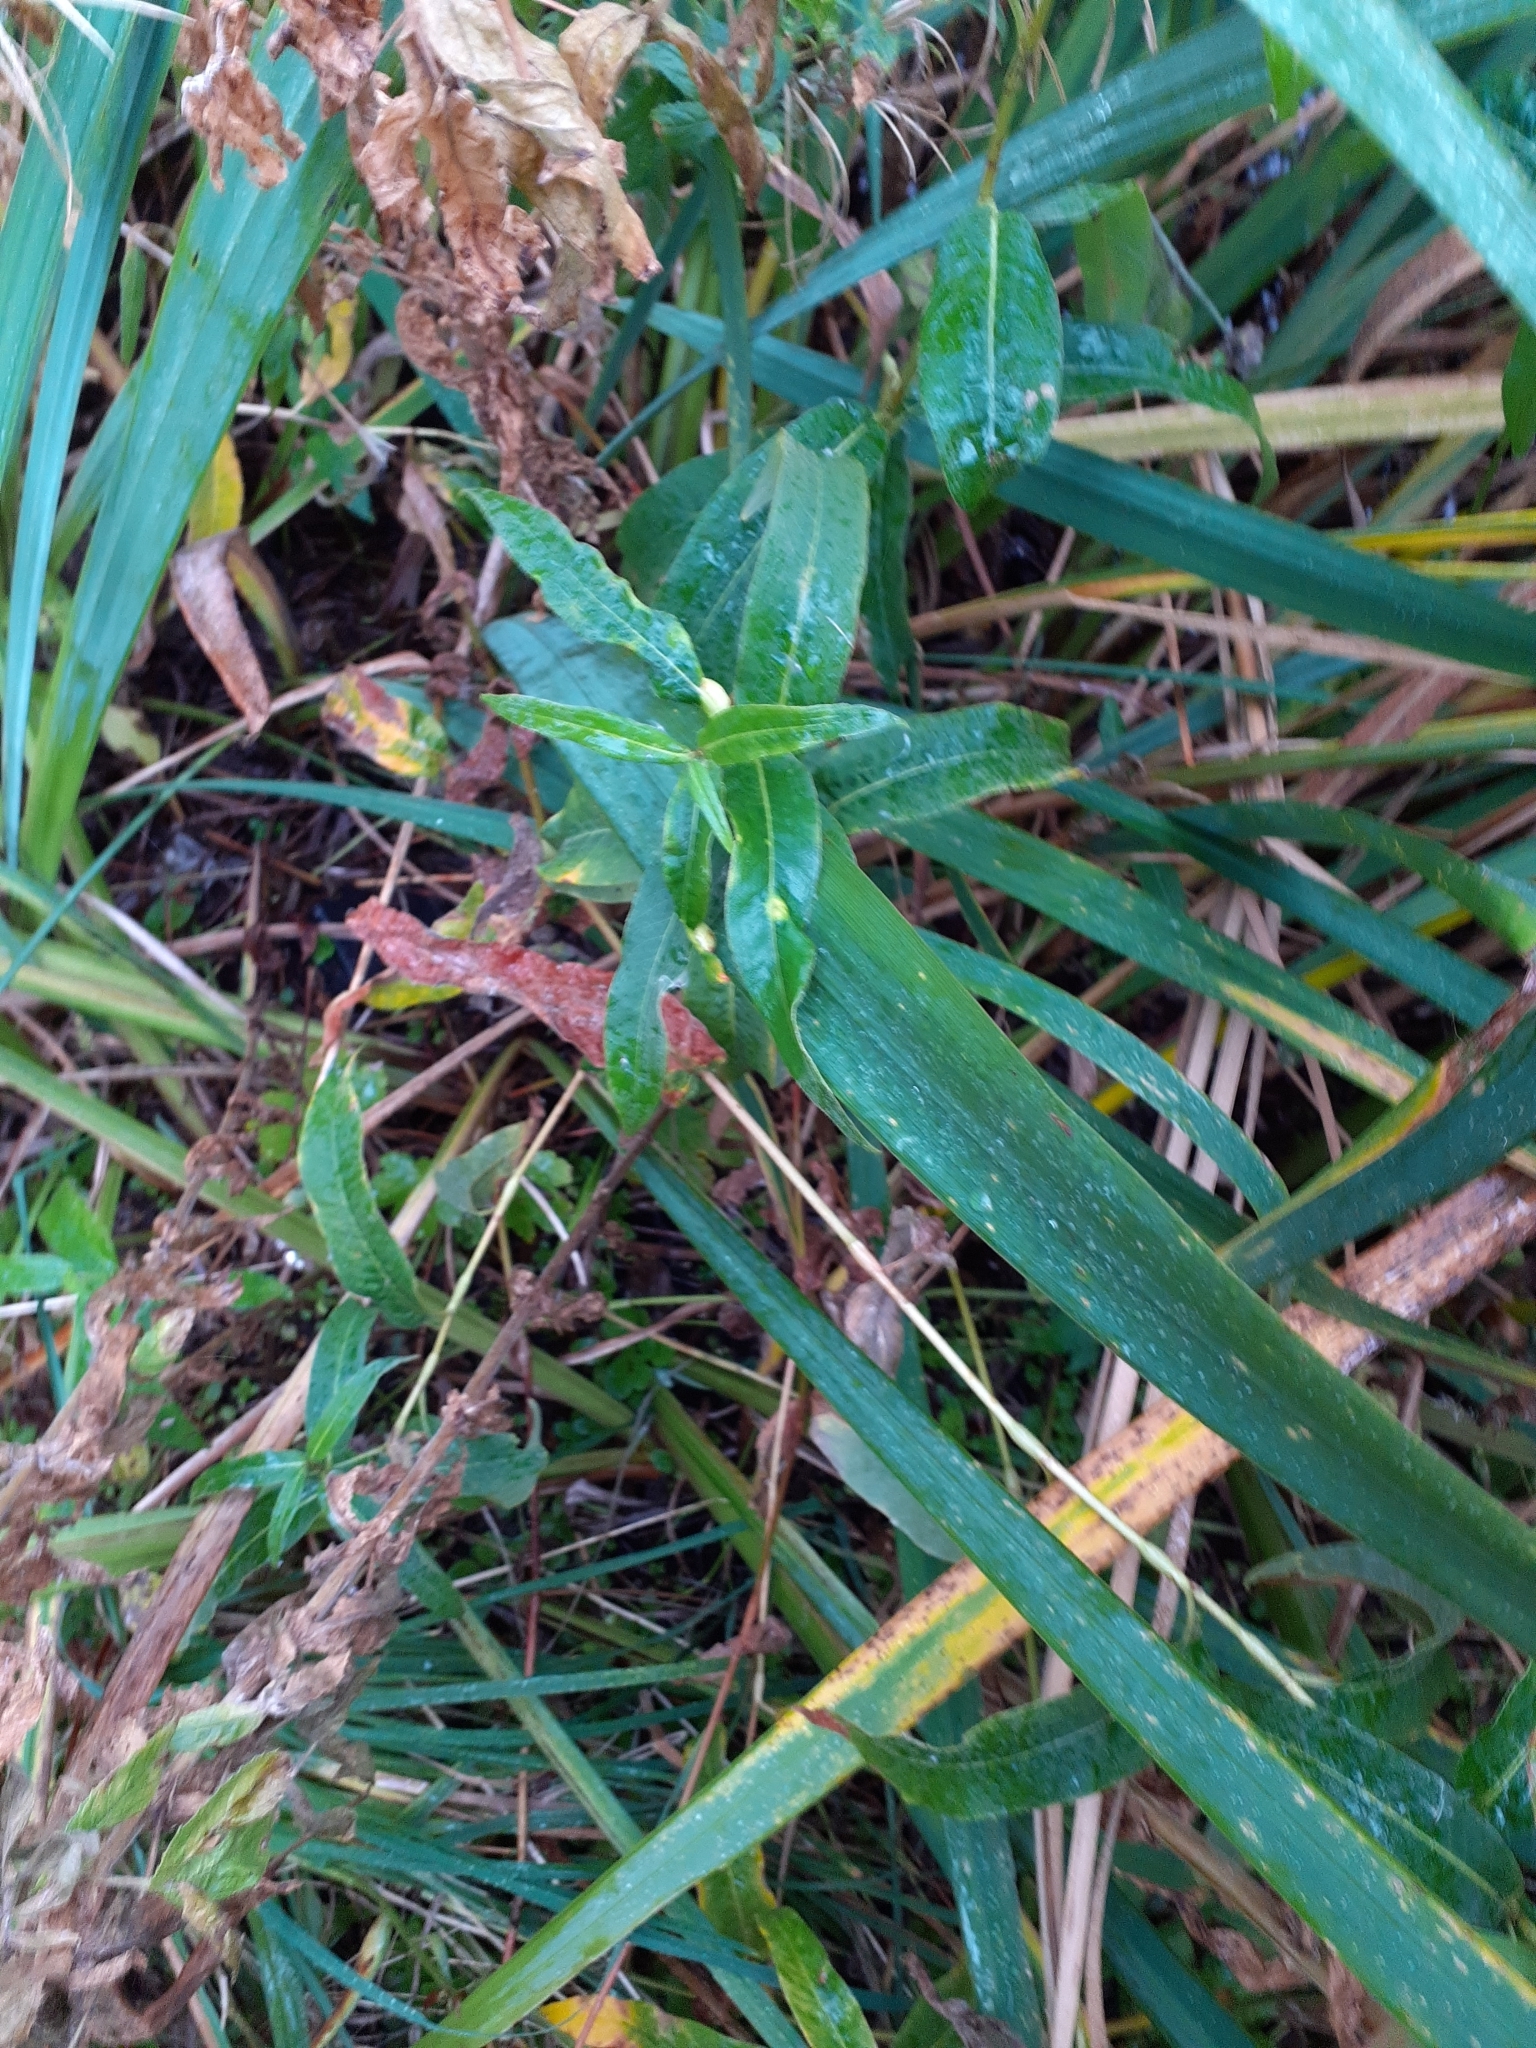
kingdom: Animalia
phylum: Arthropoda
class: Insecta
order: Diptera
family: Cecidomyiidae
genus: Wachtliella
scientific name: Wachtliella persicariae
